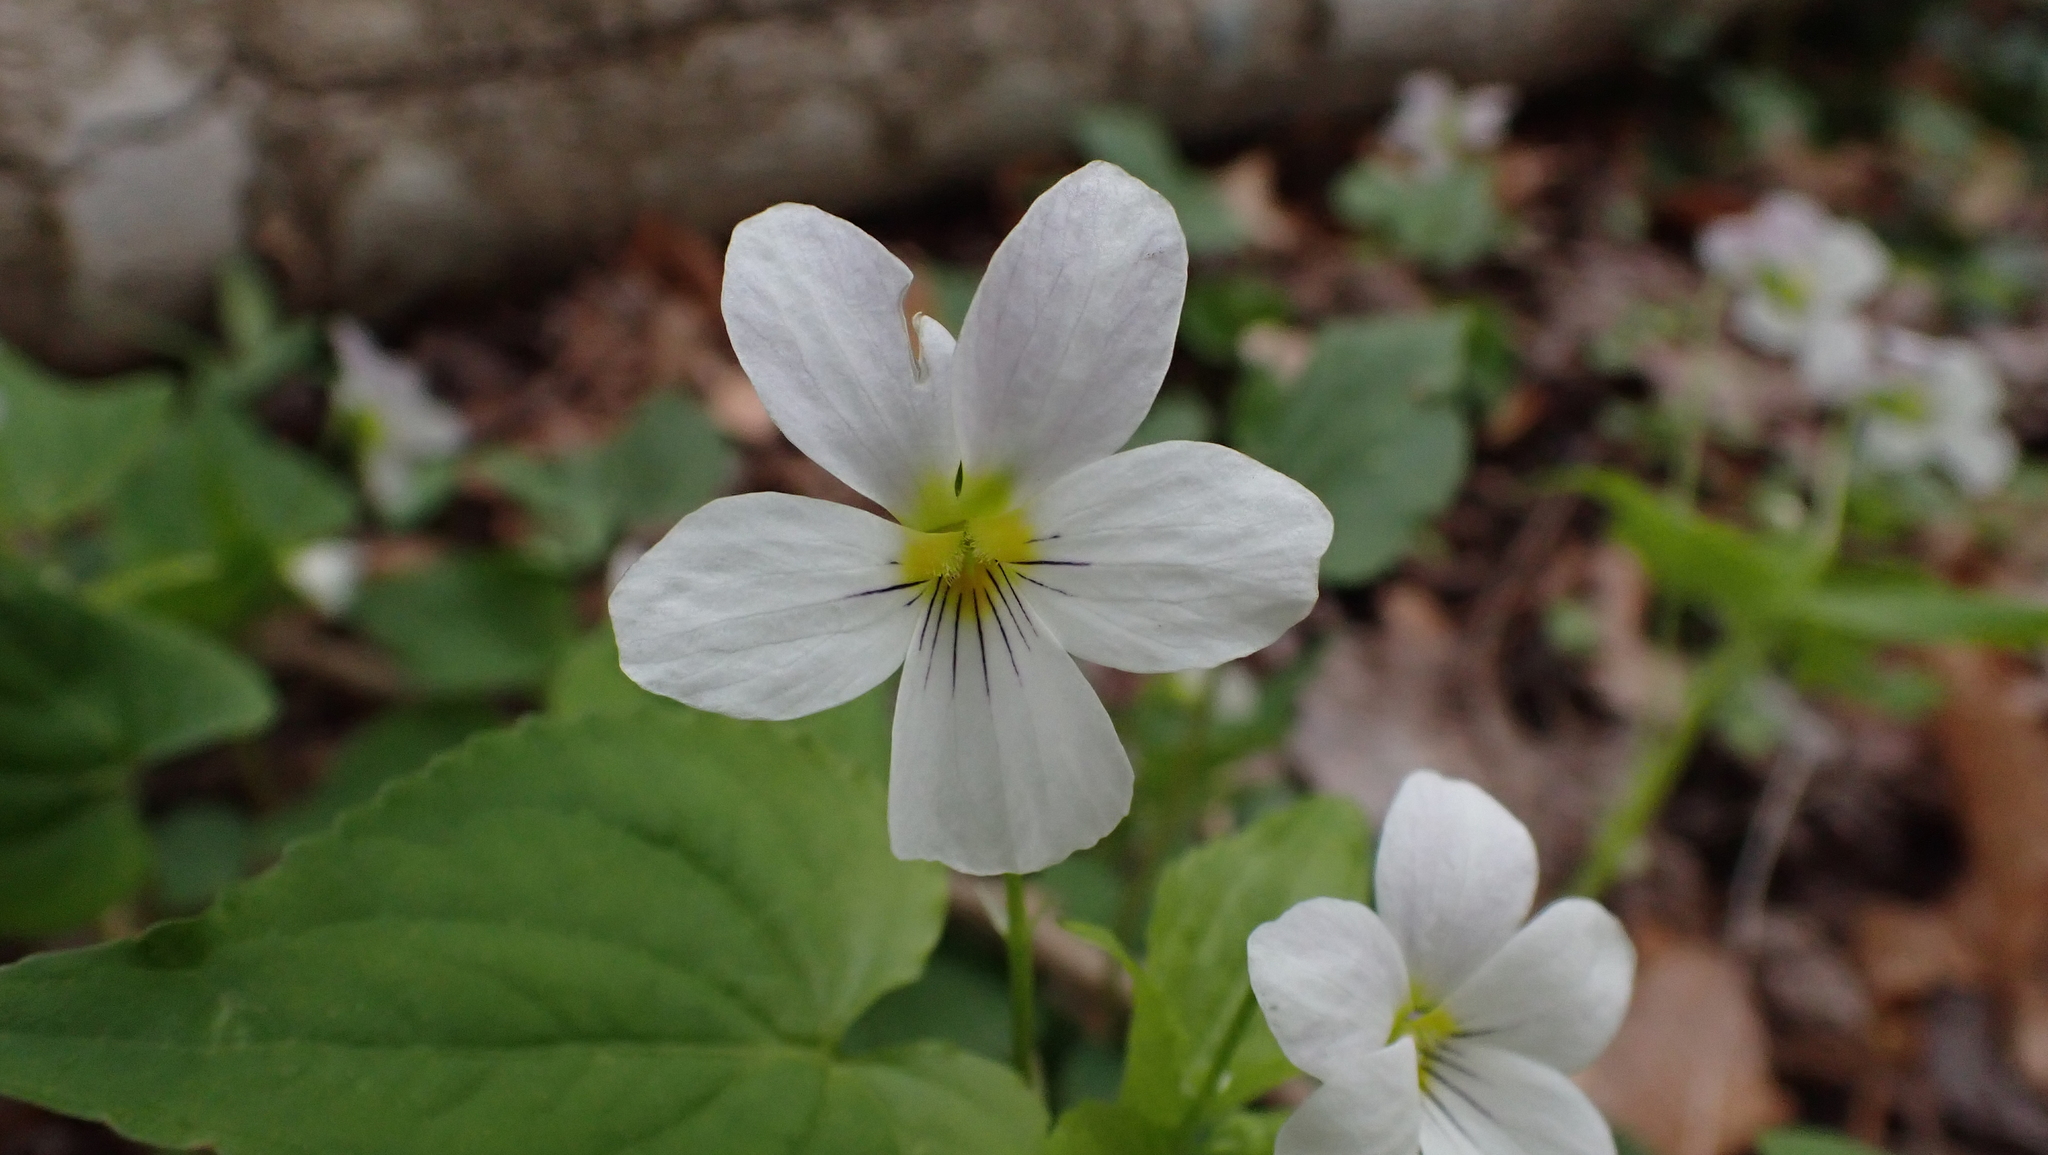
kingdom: Plantae
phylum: Tracheophyta
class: Magnoliopsida
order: Malpighiales
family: Violaceae
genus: Viola
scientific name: Viola canadensis
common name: Canada violet
